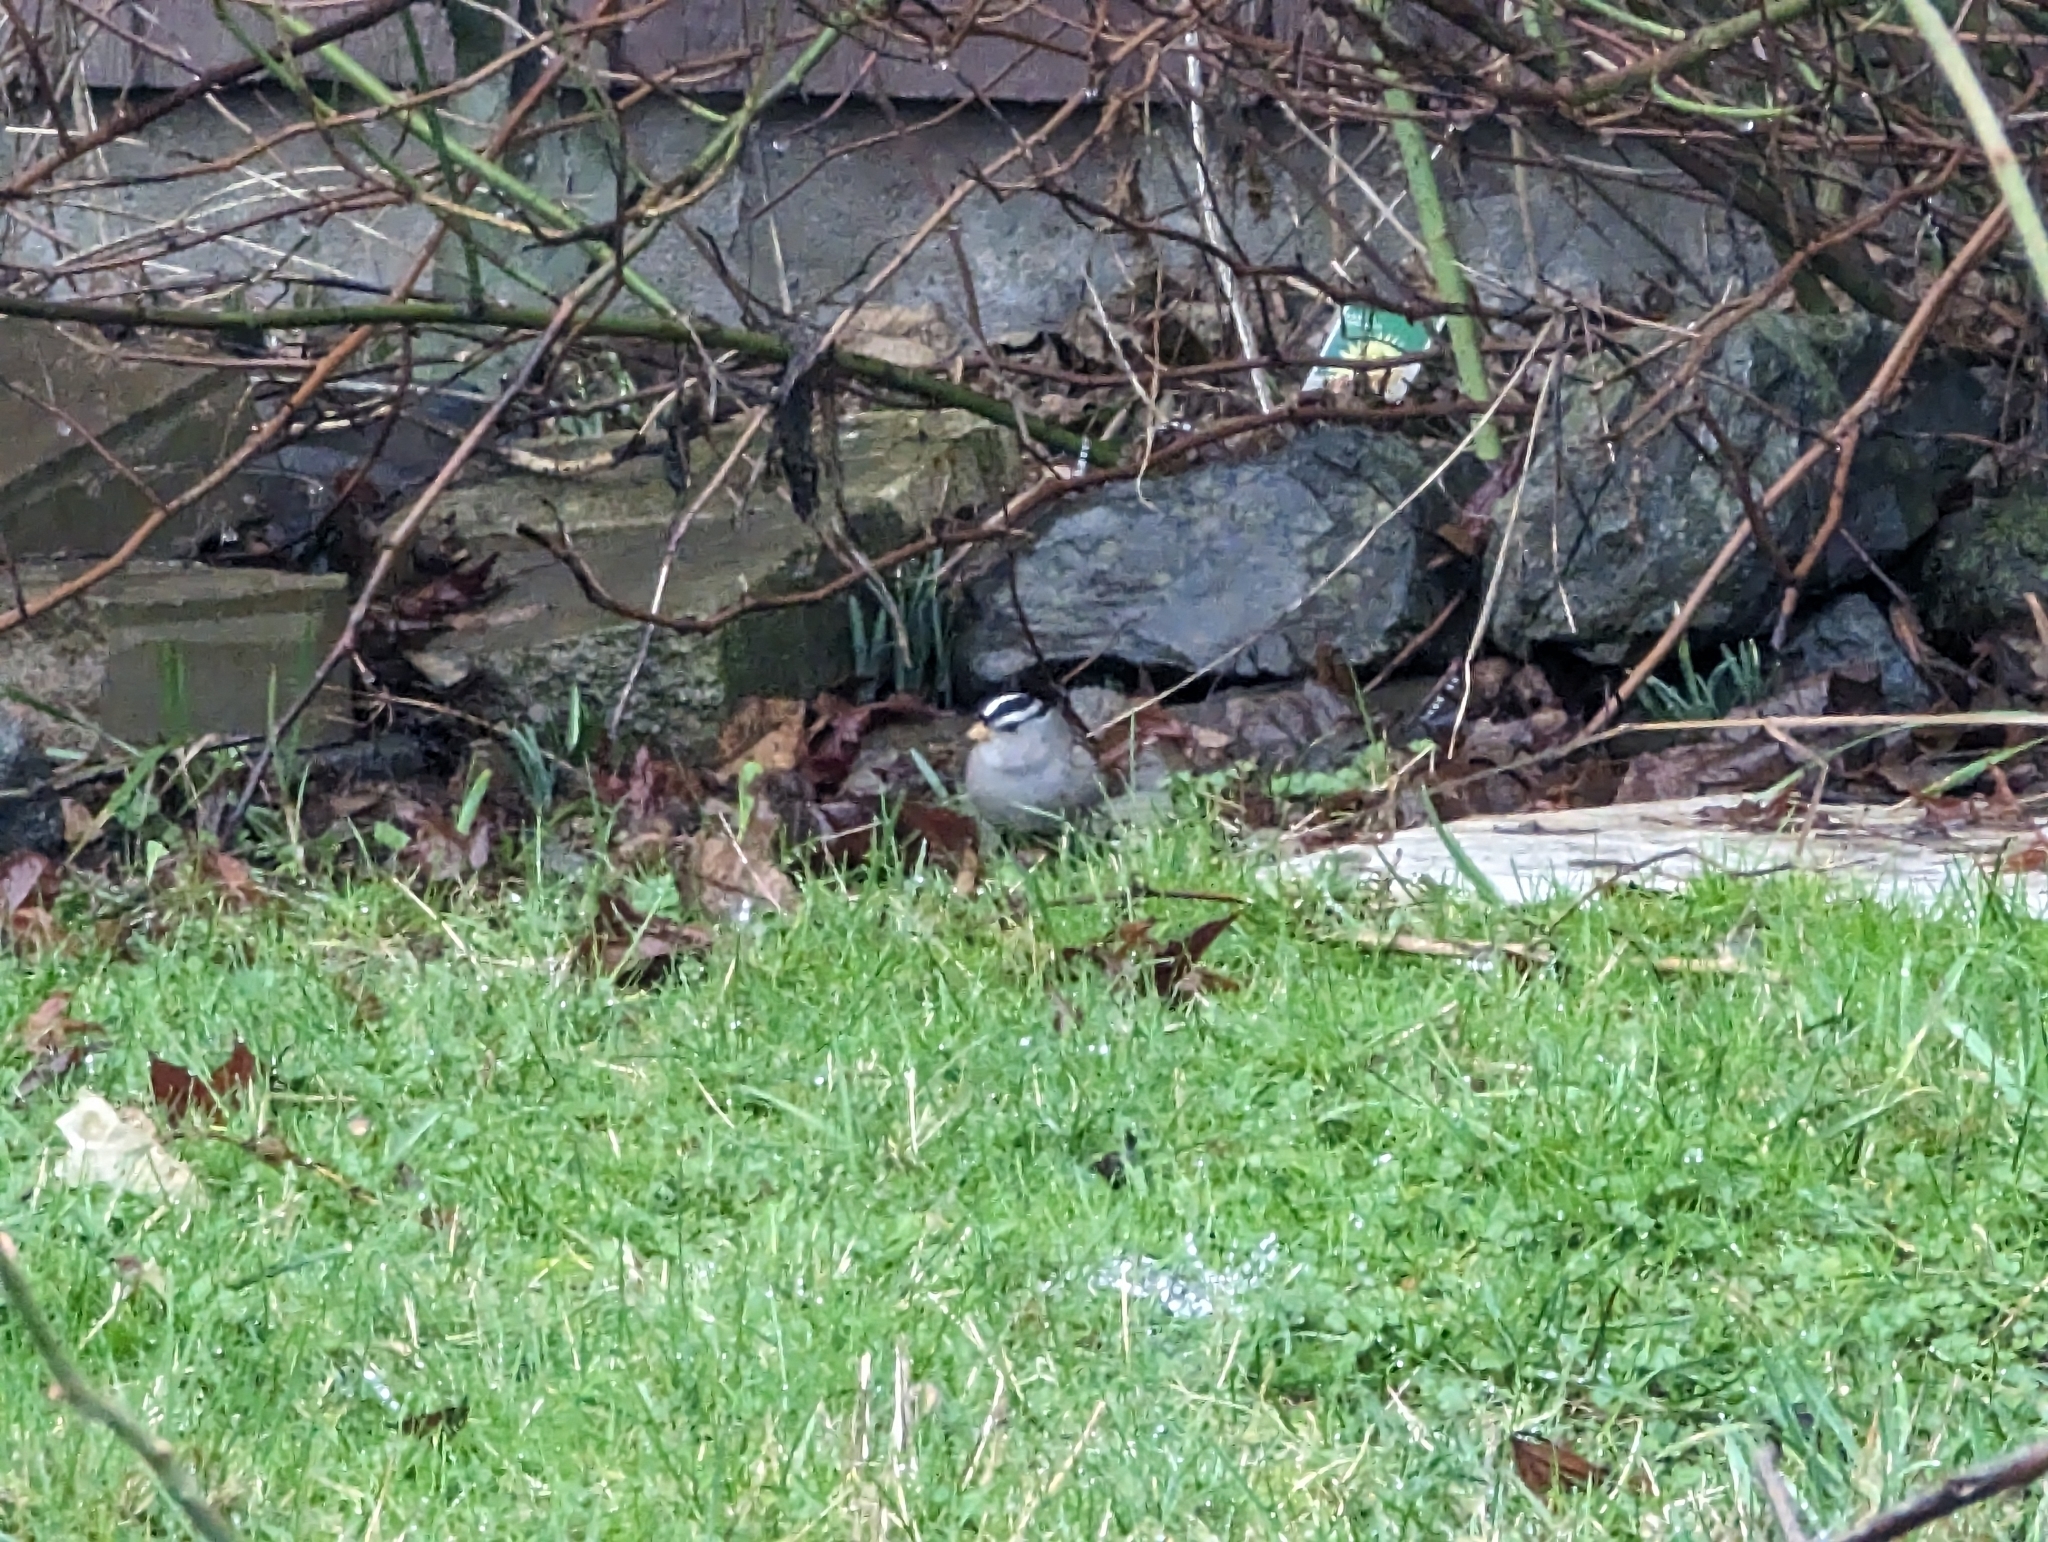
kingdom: Animalia
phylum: Chordata
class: Aves
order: Passeriformes
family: Passerellidae
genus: Zonotrichia
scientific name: Zonotrichia leucophrys
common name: White-crowned sparrow
